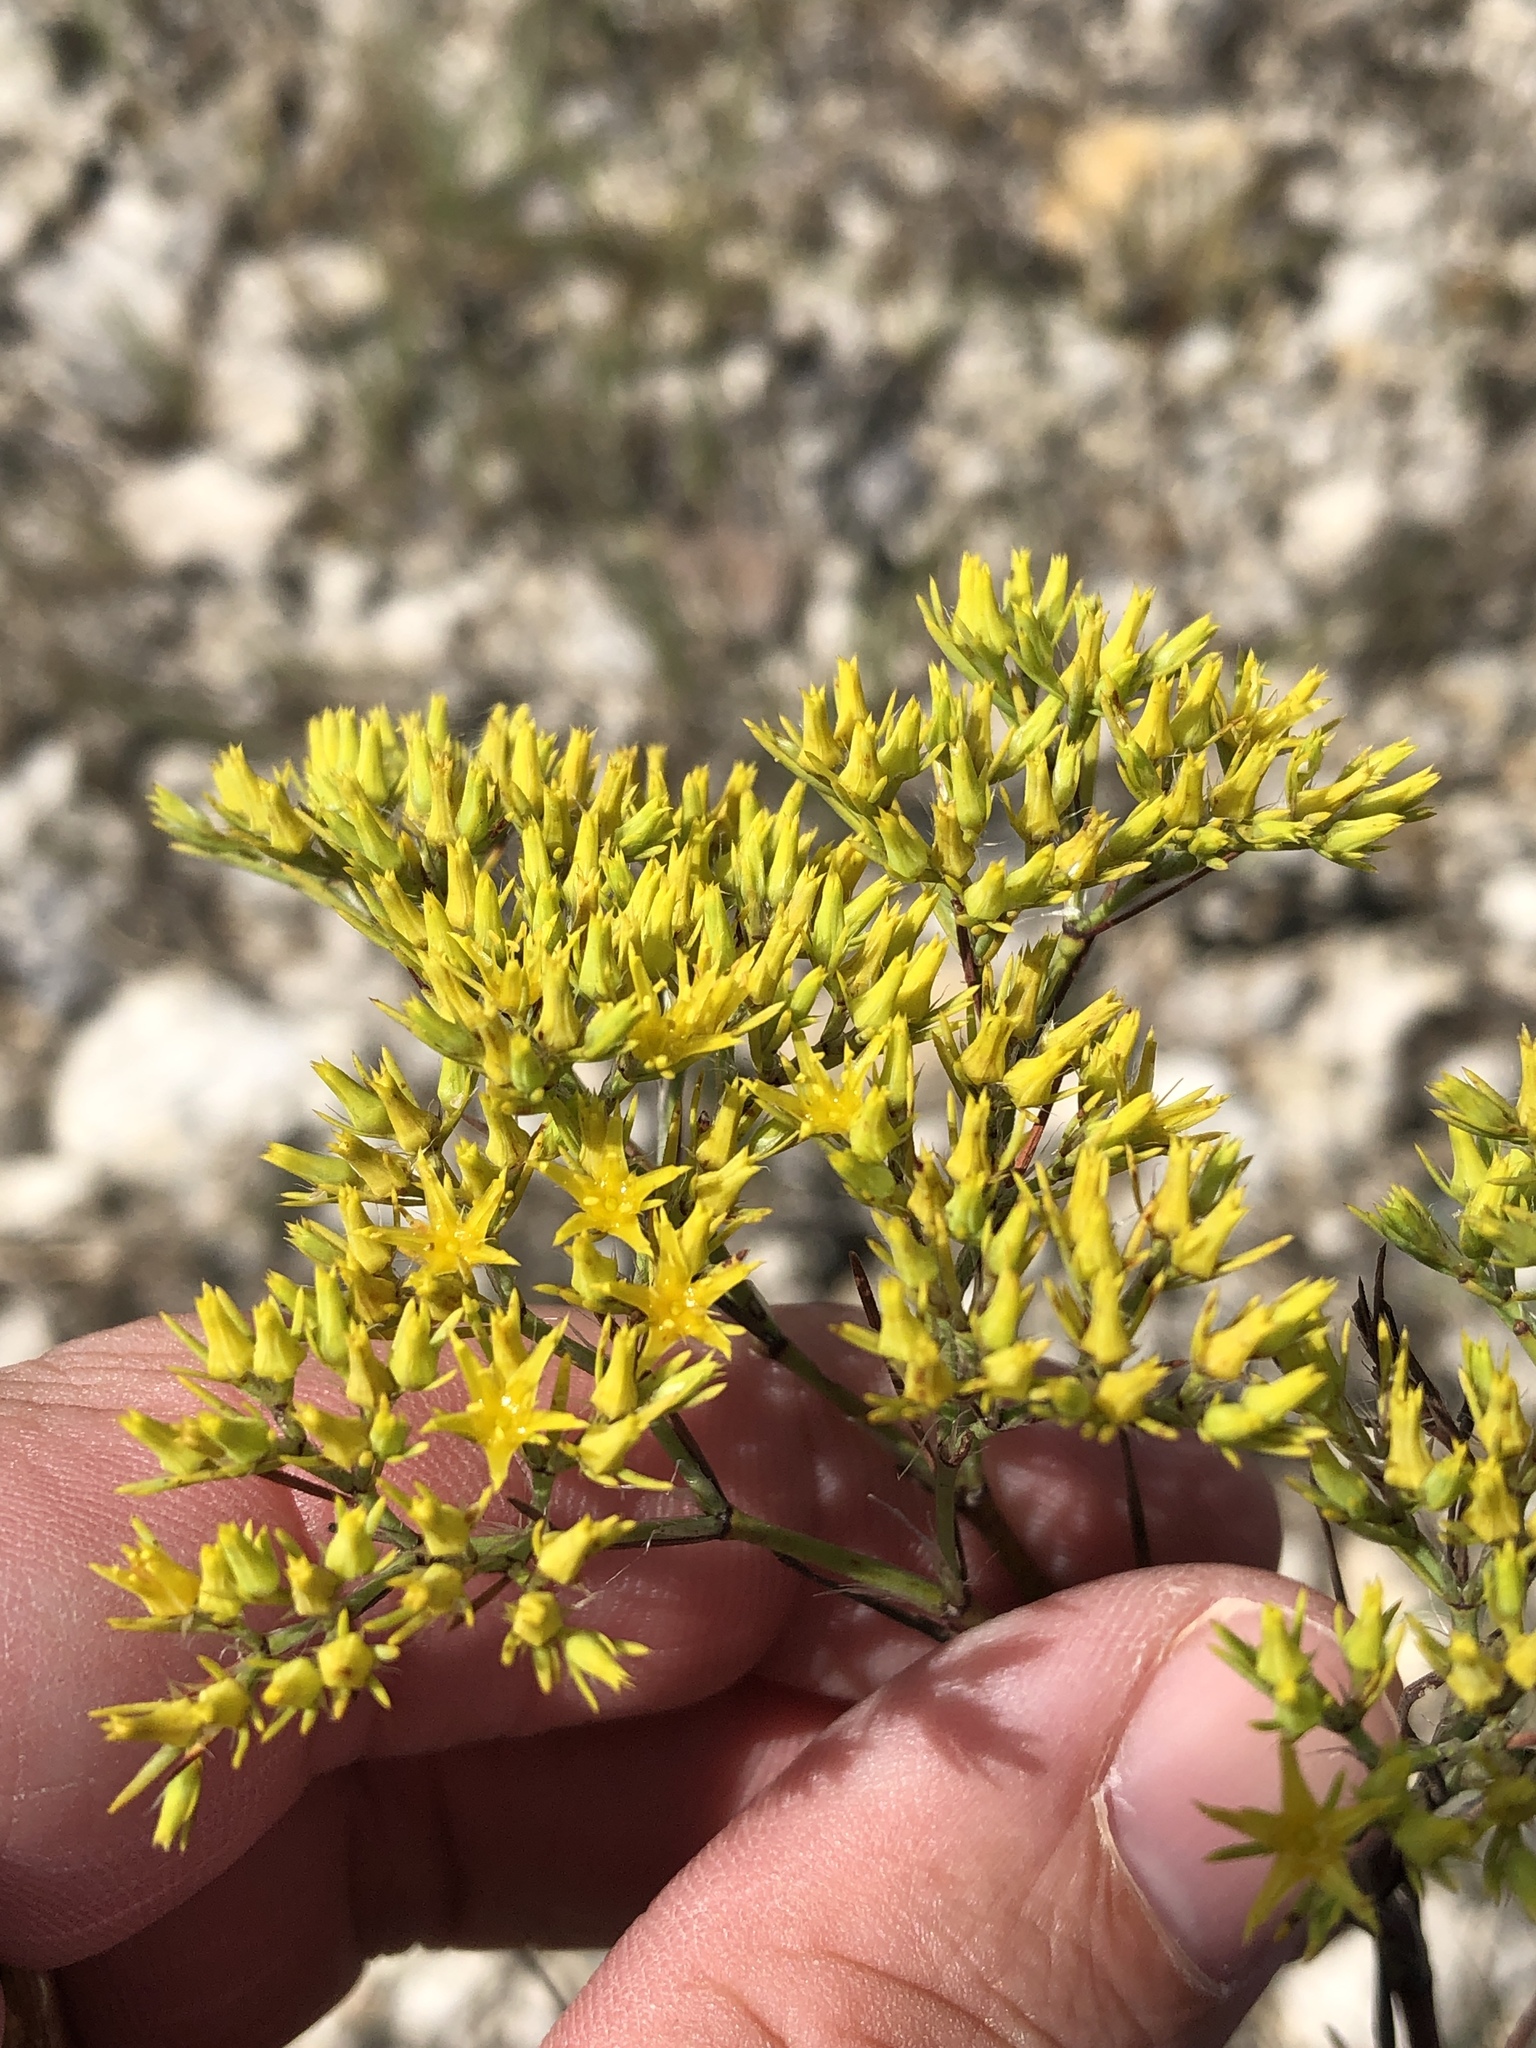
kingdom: Plantae
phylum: Tracheophyta
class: Magnoliopsida
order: Caryophyllales
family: Caryophyllaceae
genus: Paronychia
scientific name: Paronychia virginica
